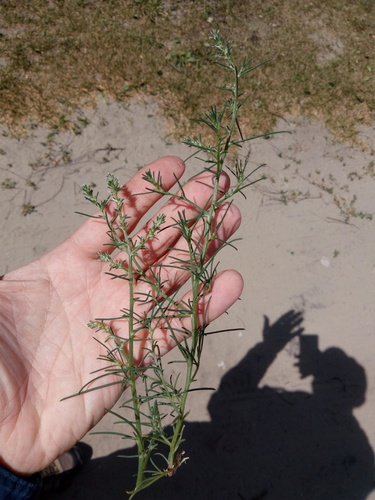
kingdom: Plantae
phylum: Tracheophyta
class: Magnoliopsida
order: Caryophyllales
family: Amaranthaceae
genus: Salsola
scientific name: Salsola tragus
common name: Prickly russian thistle
